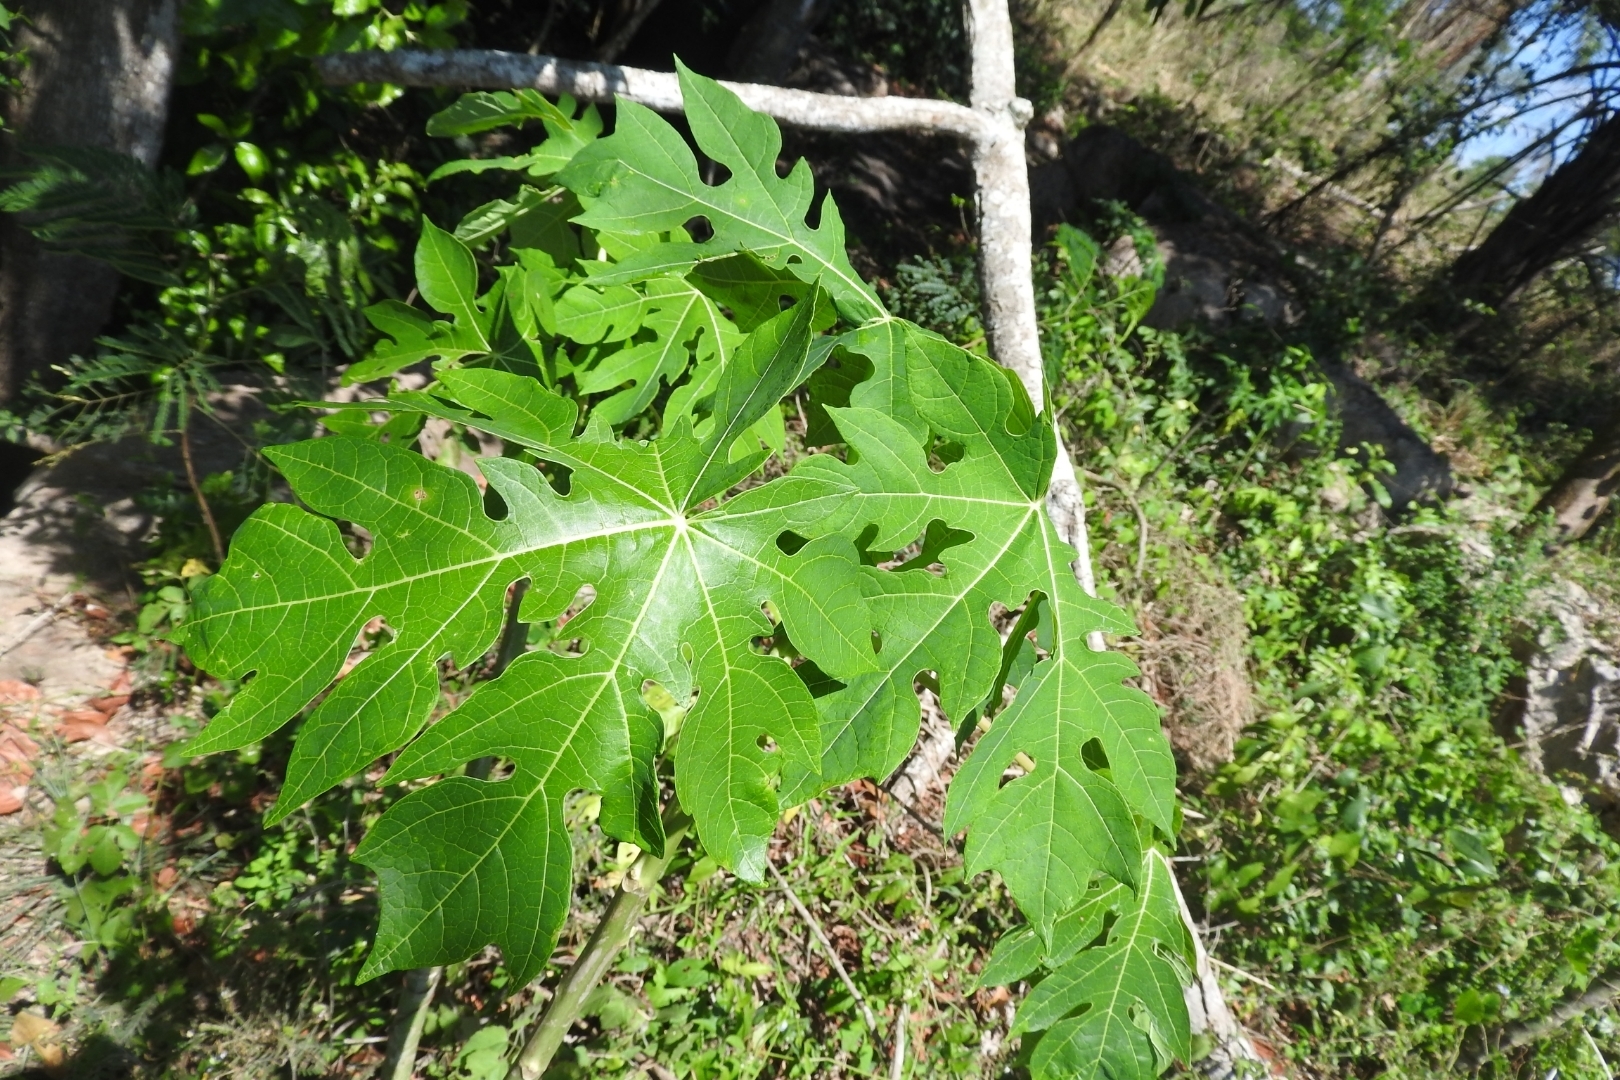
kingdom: Plantae
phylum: Tracheophyta
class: Magnoliopsida
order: Brassicales
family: Caricaceae
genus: Carica
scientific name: Carica papaya
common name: Papaya
